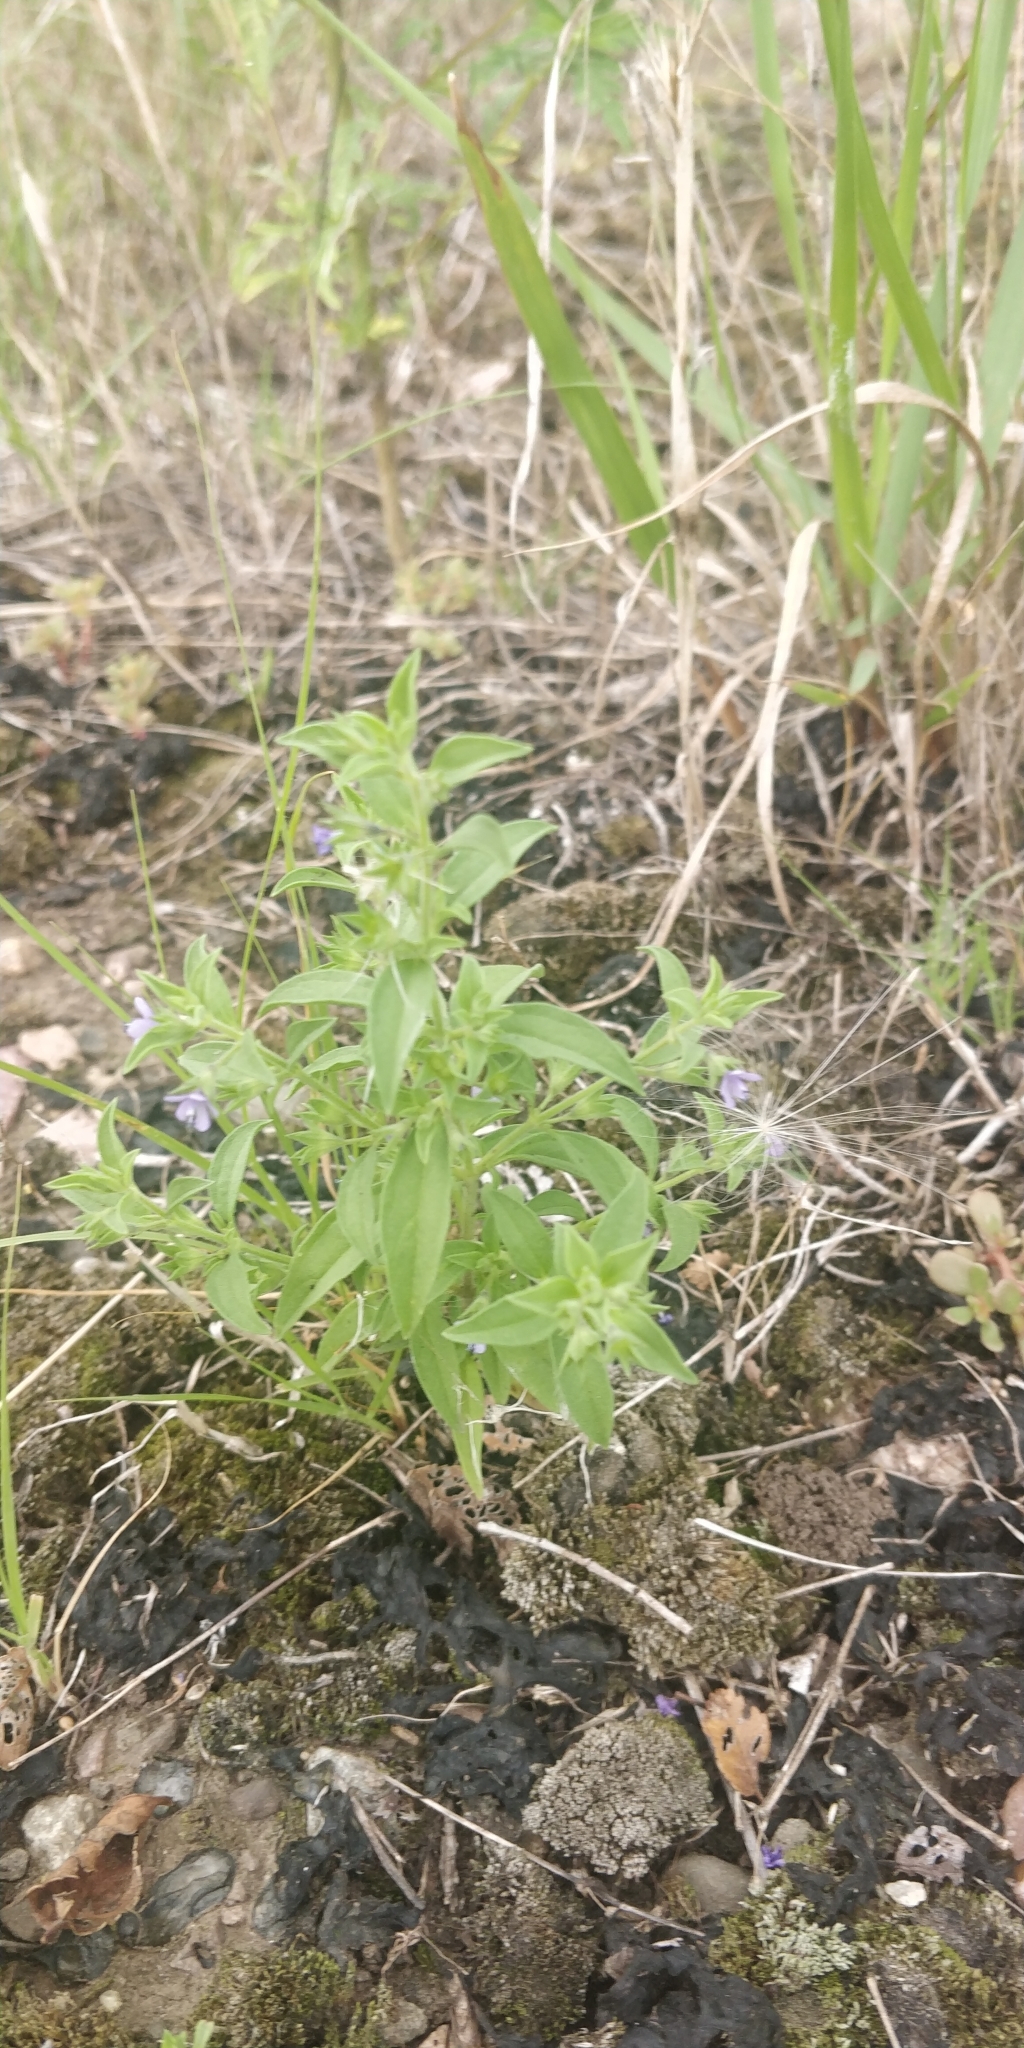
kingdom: Plantae
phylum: Tracheophyta
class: Magnoliopsida
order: Lamiales
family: Lamiaceae
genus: Trichostema
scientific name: Trichostema brachiatum
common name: False pennyroyal
